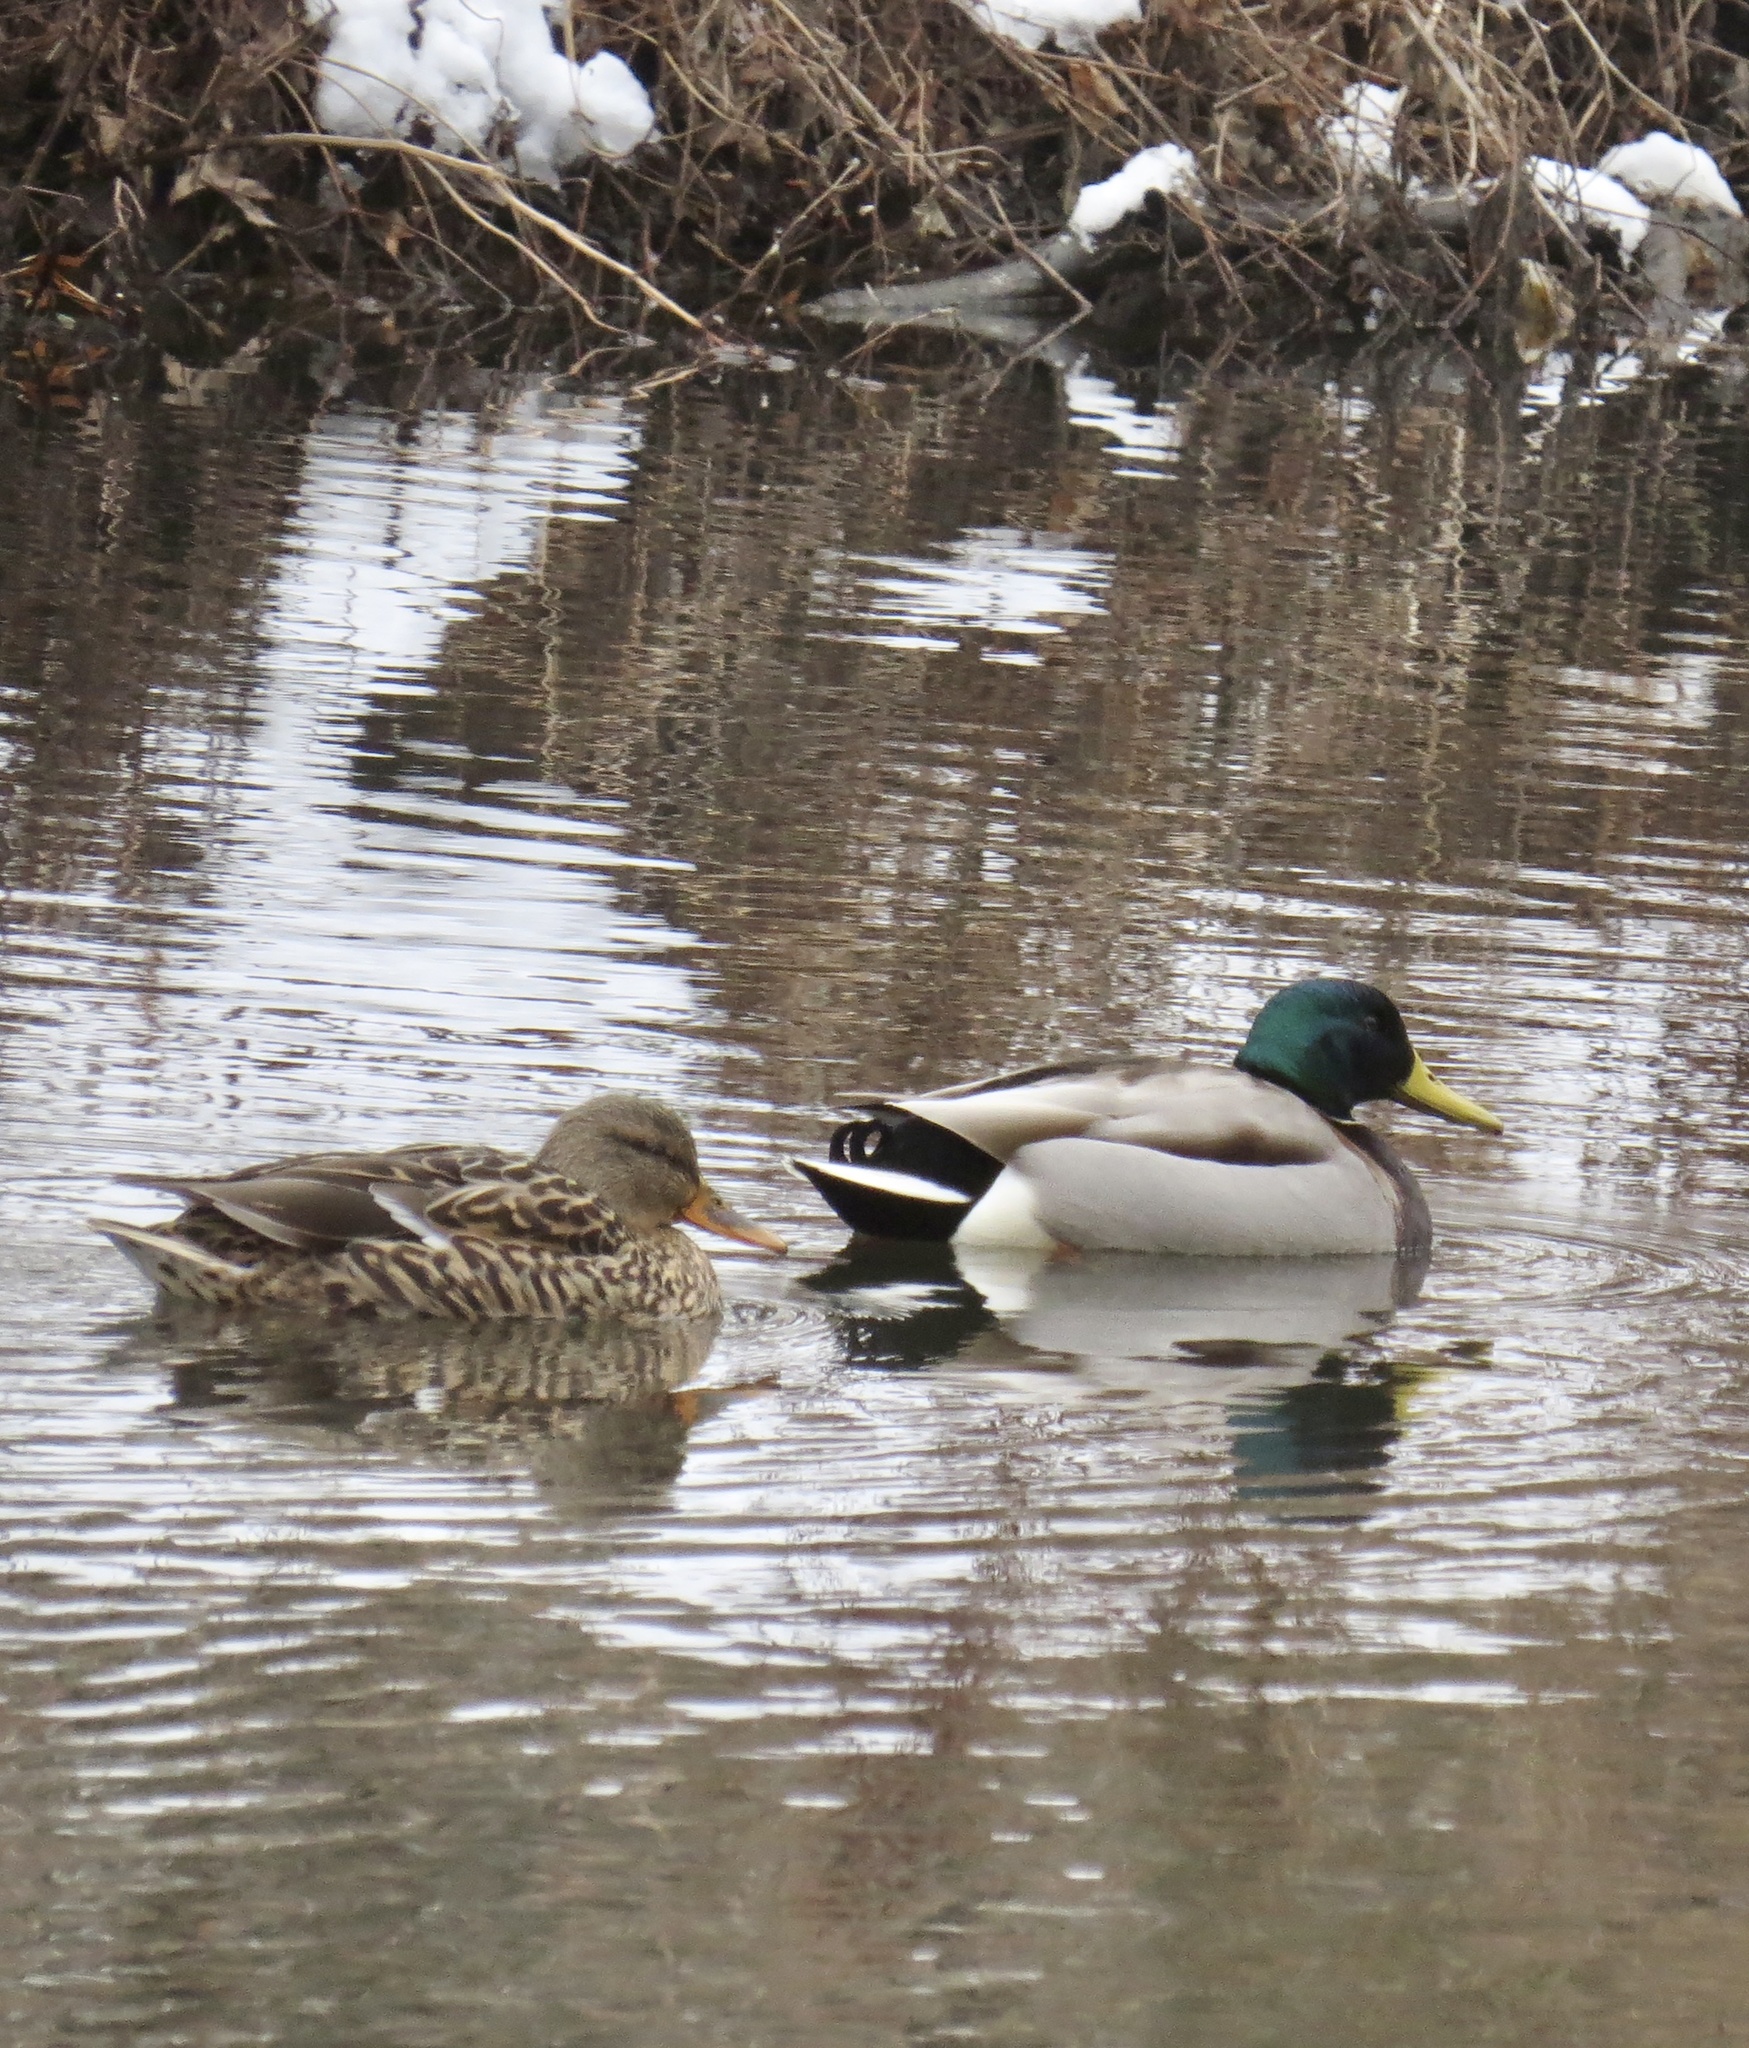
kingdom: Animalia
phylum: Chordata
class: Aves
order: Anseriformes
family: Anatidae
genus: Anas
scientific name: Anas platyrhynchos
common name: Mallard
